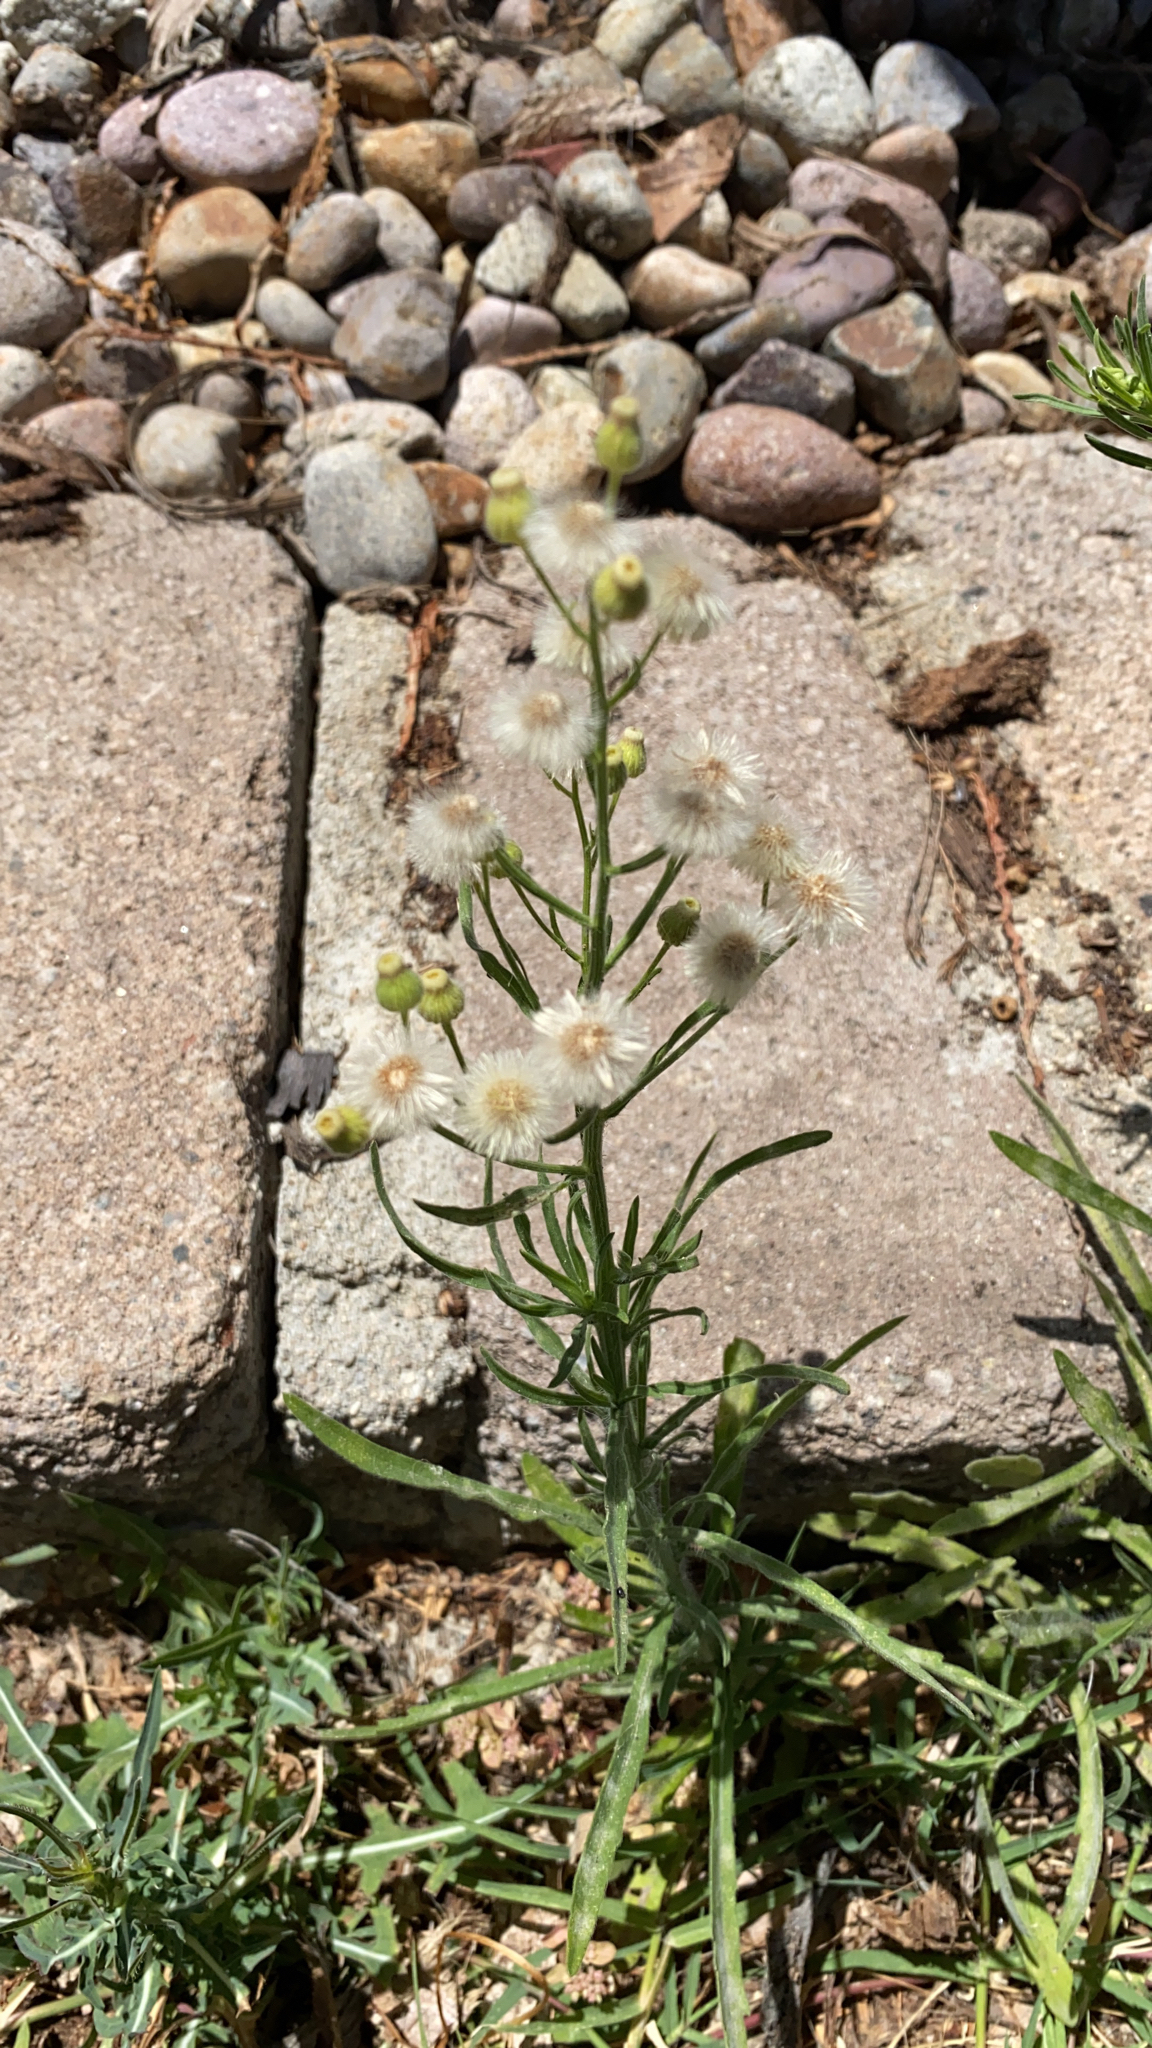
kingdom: Plantae
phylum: Tracheophyta
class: Magnoliopsida
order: Asterales
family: Asteraceae
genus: Erigeron
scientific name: Erigeron bonariensis
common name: Argentine fleabane
